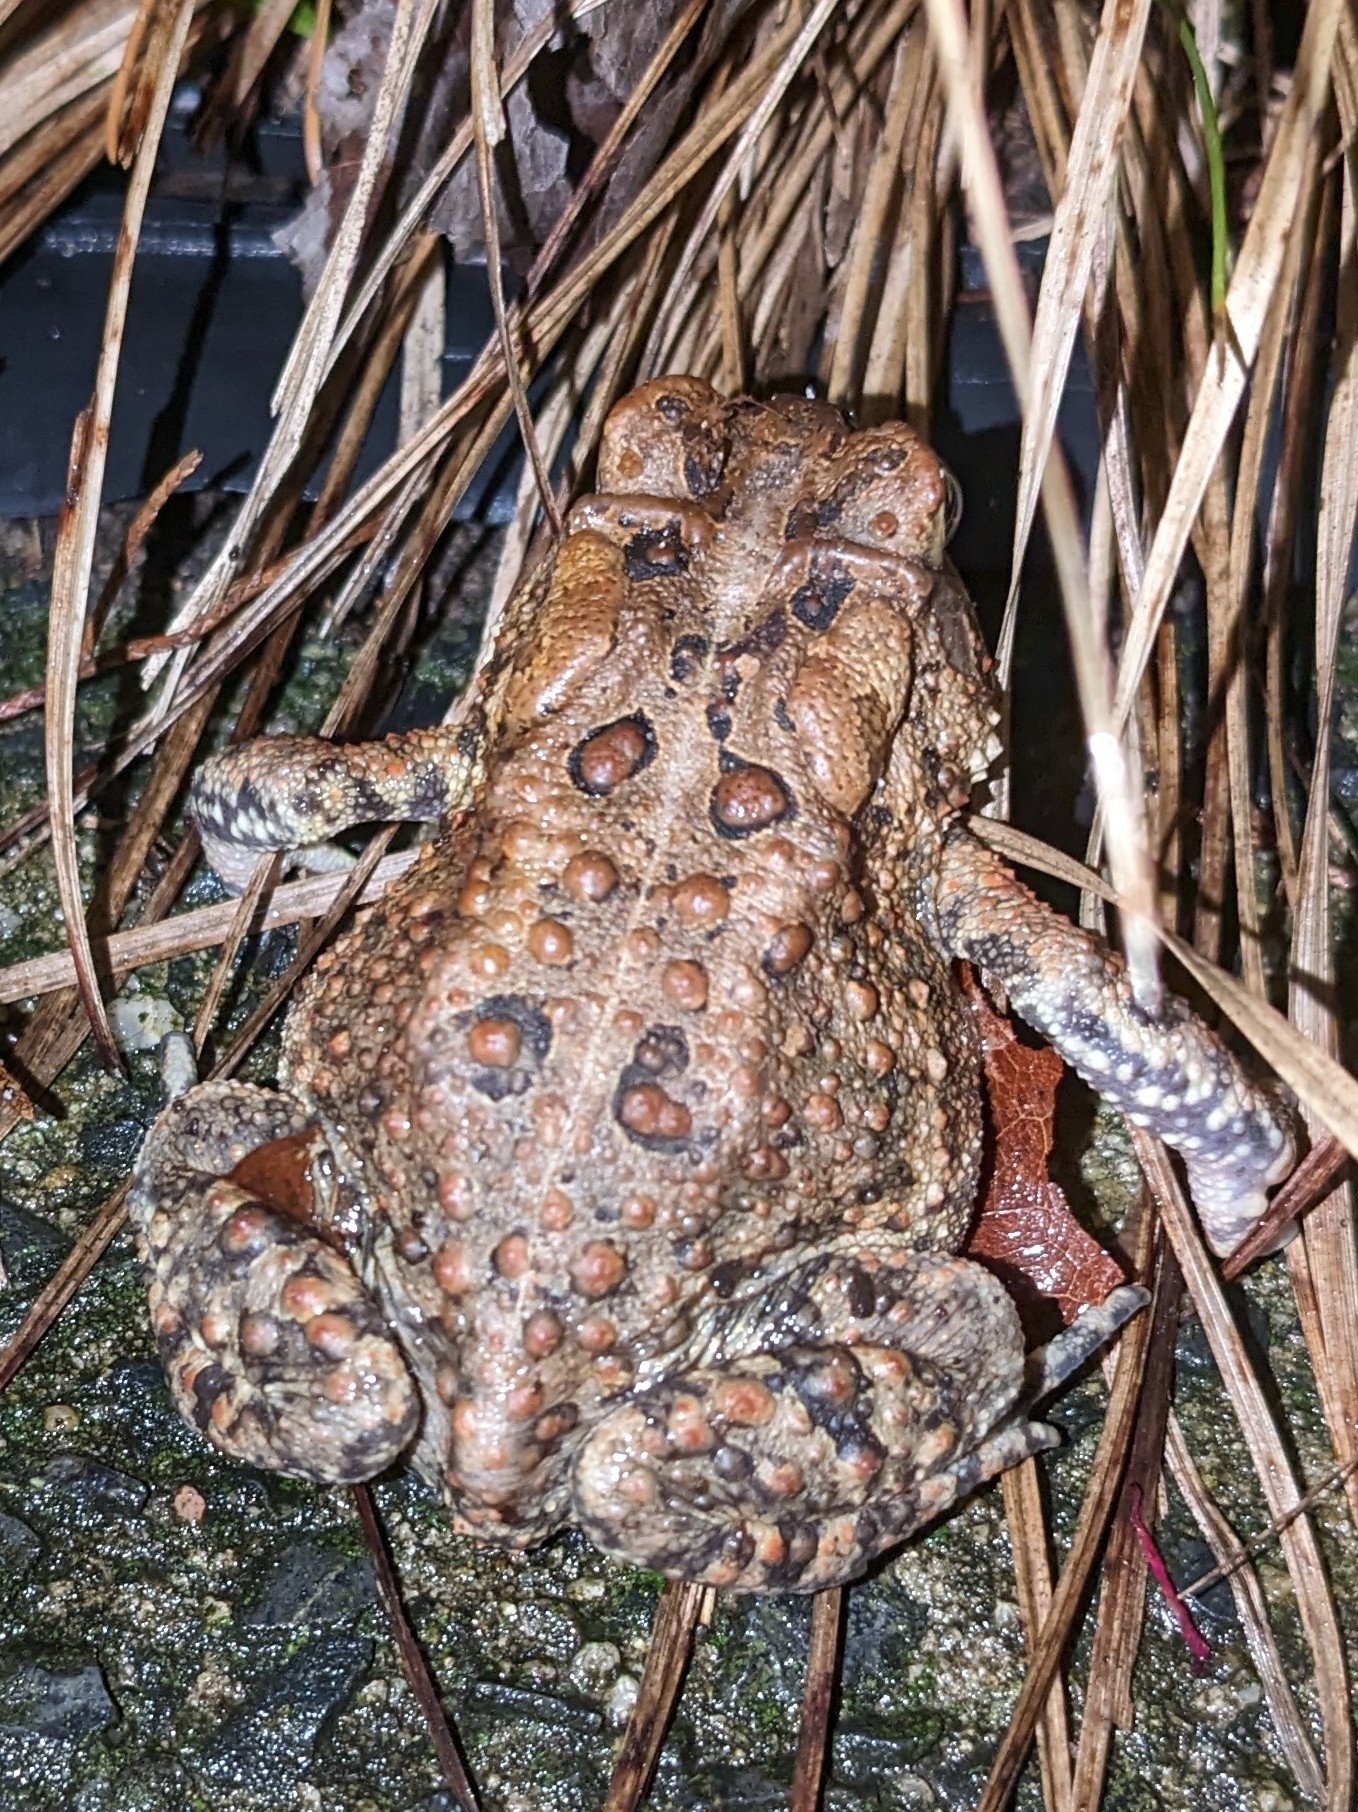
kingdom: Animalia
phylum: Chordata
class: Amphibia
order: Anura
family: Bufonidae
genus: Anaxyrus
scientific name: Anaxyrus americanus
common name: American toad
